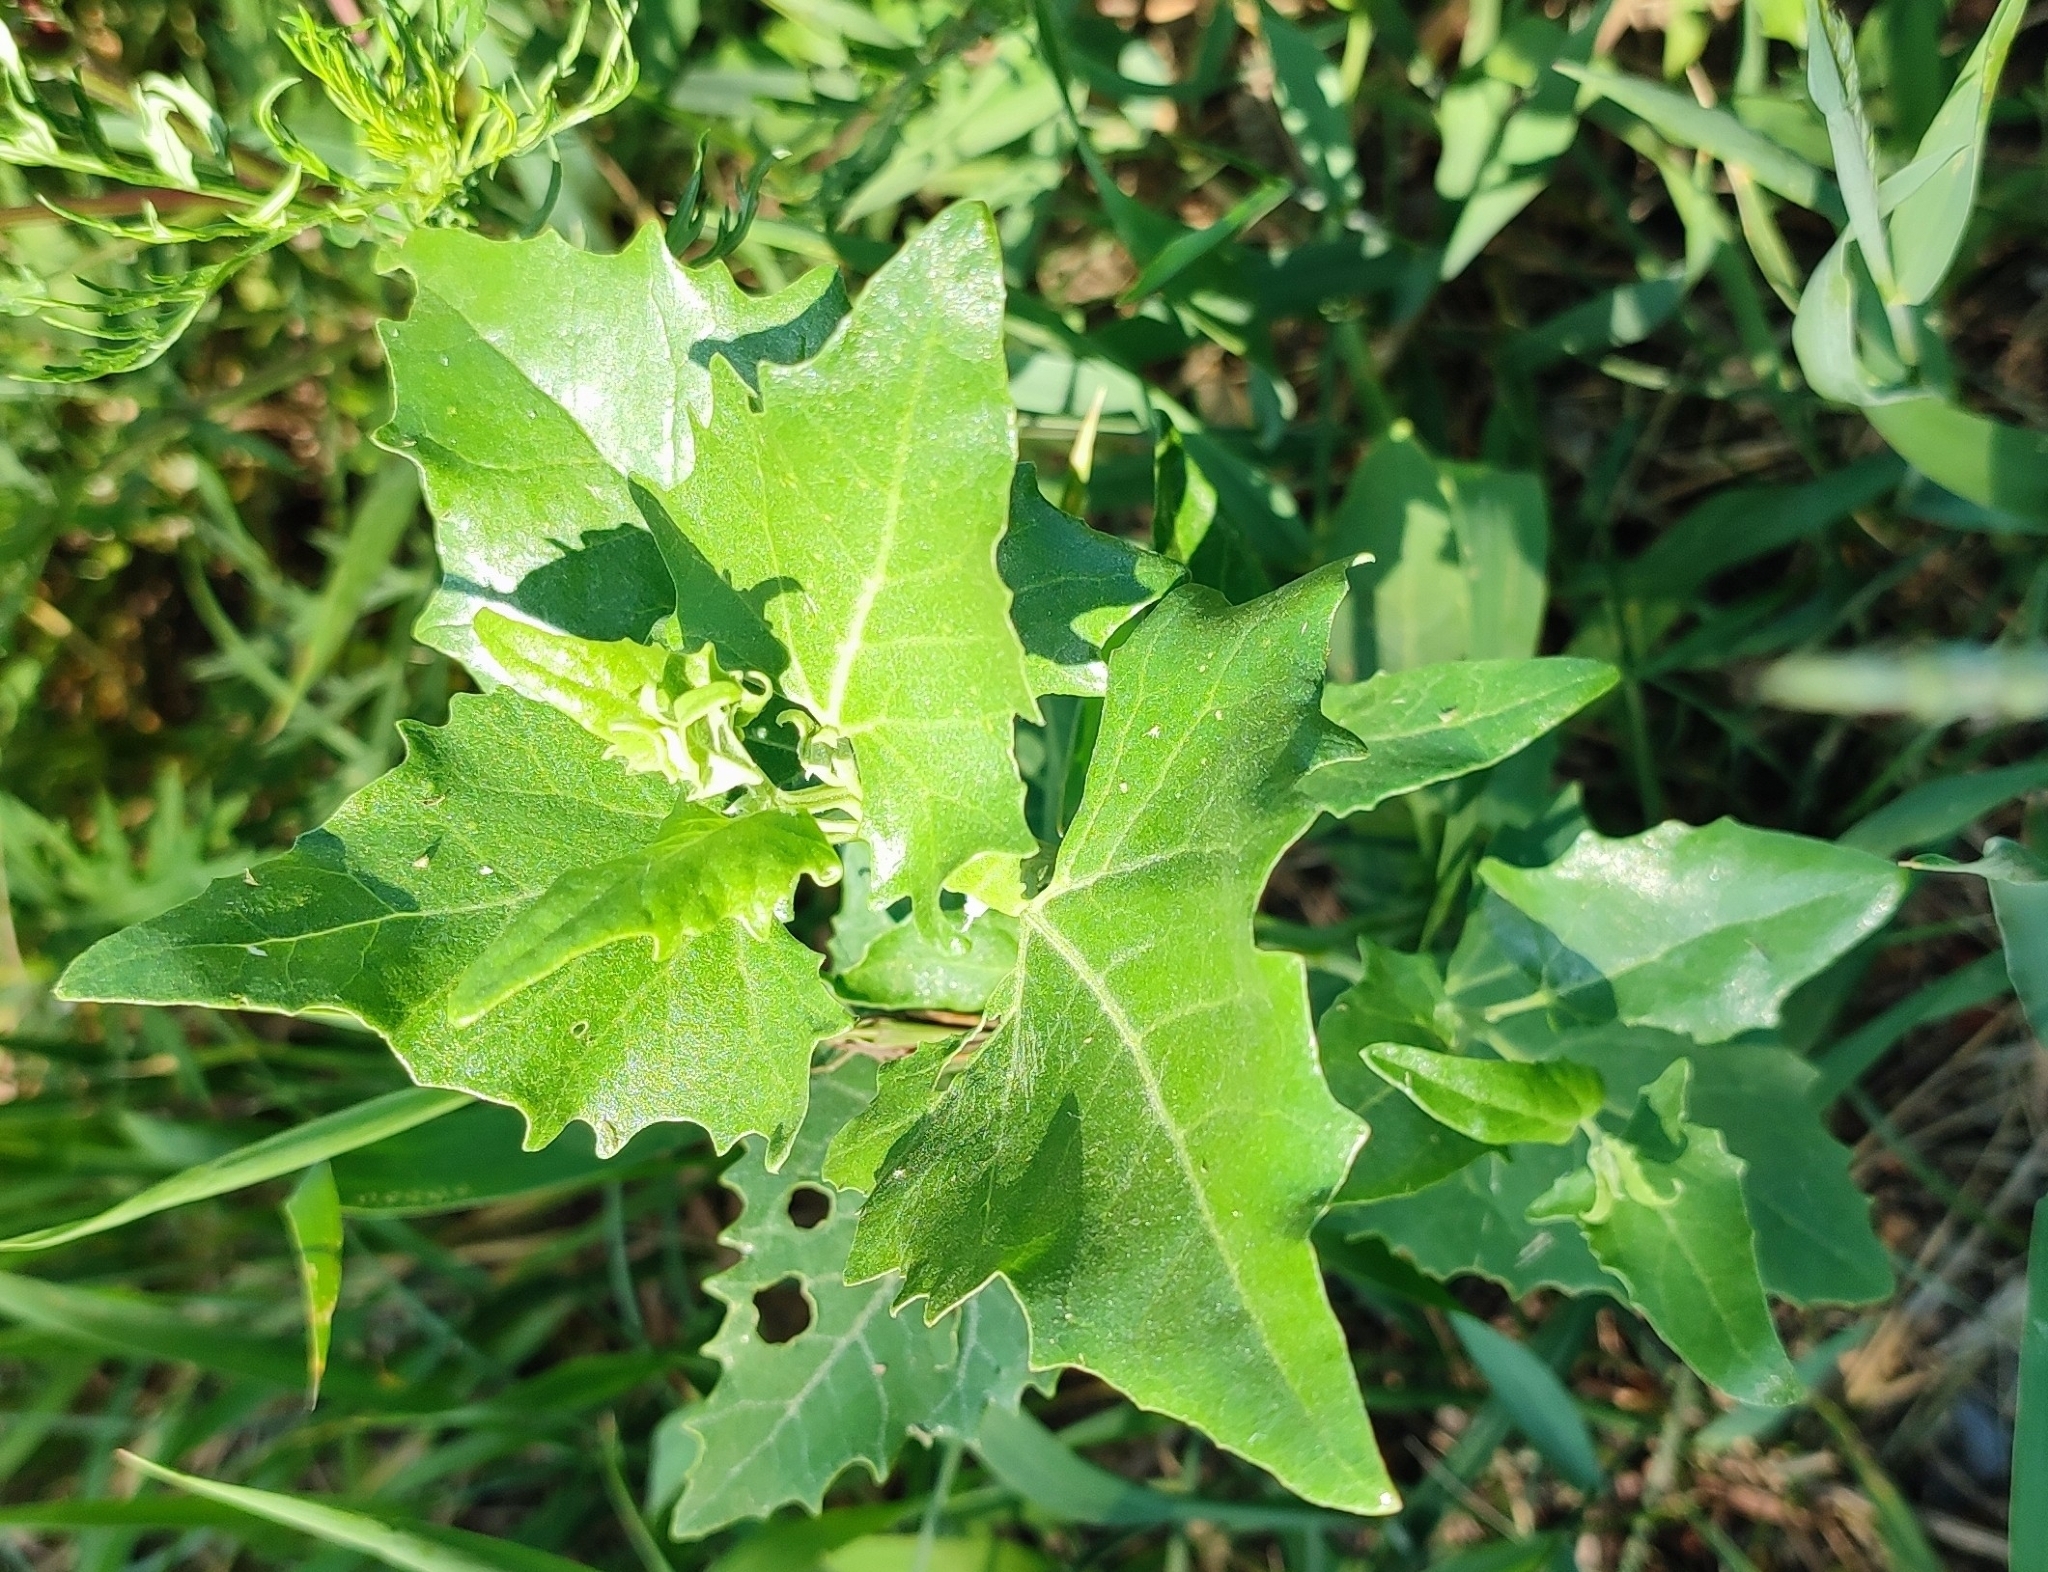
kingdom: Plantae
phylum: Tracheophyta
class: Magnoliopsida
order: Caryophyllales
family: Amaranthaceae
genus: Atriplex
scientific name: Atriplex sagittata
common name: Purple orache
